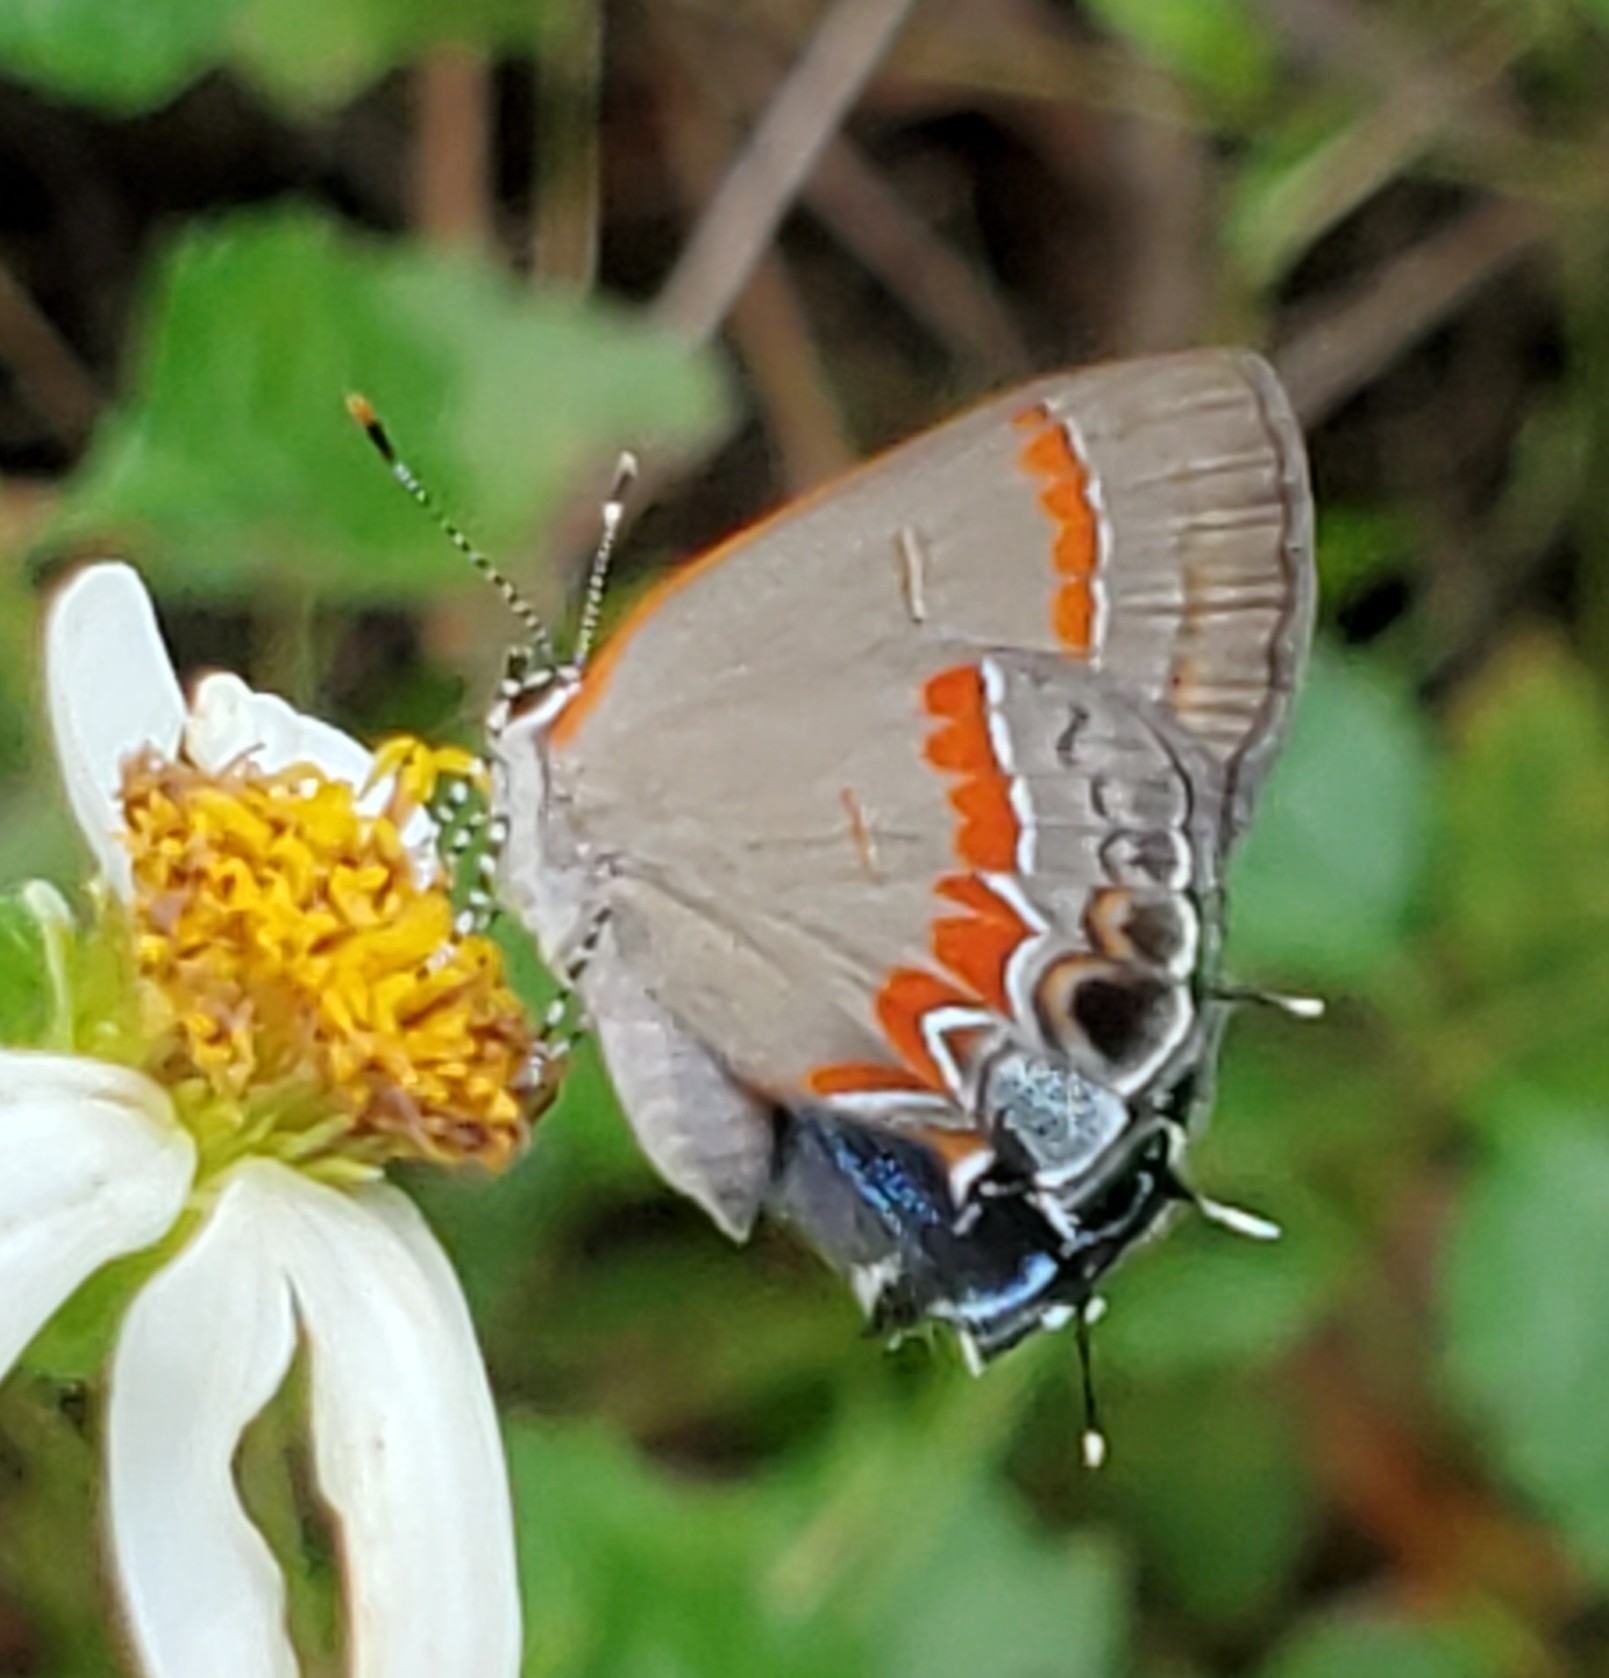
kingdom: Animalia
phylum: Arthropoda
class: Insecta
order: Lepidoptera
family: Lycaenidae
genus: Calycopis
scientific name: Calycopis cecrops
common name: Red-banded hairstreak
